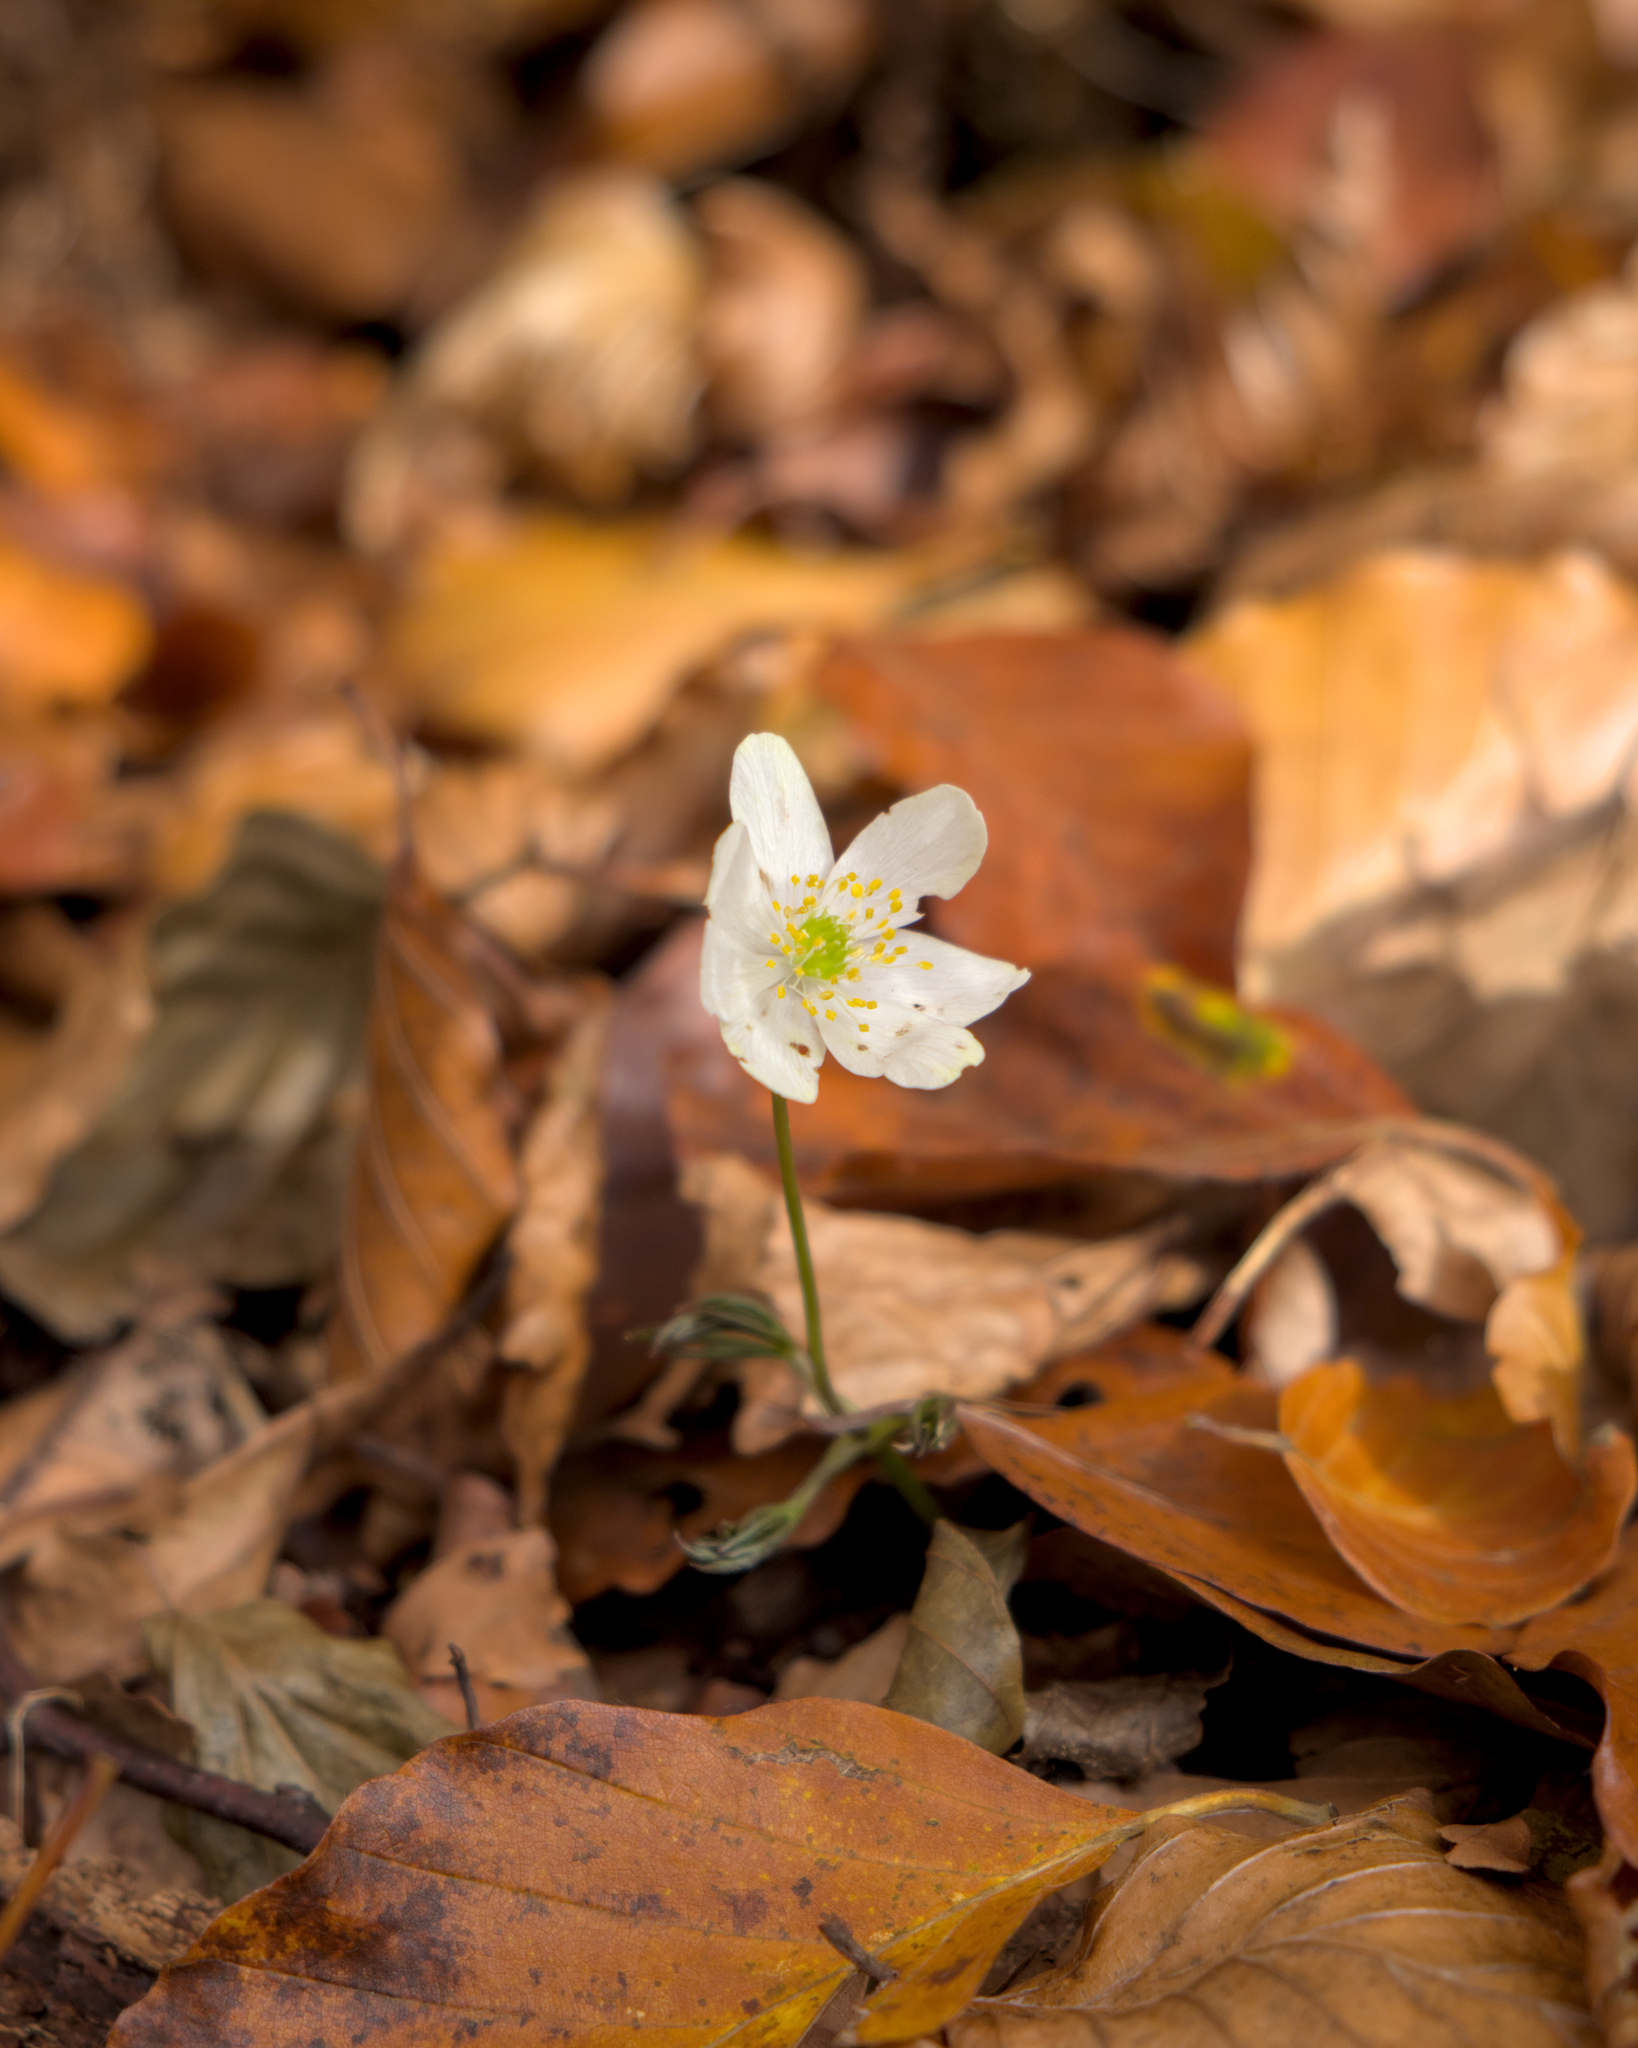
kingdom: Plantae
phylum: Tracheophyta
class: Magnoliopsida
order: Ranunculales
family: Ranunculaceae
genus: Anemone
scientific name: Anemone nemorosa
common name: Wood anemone
